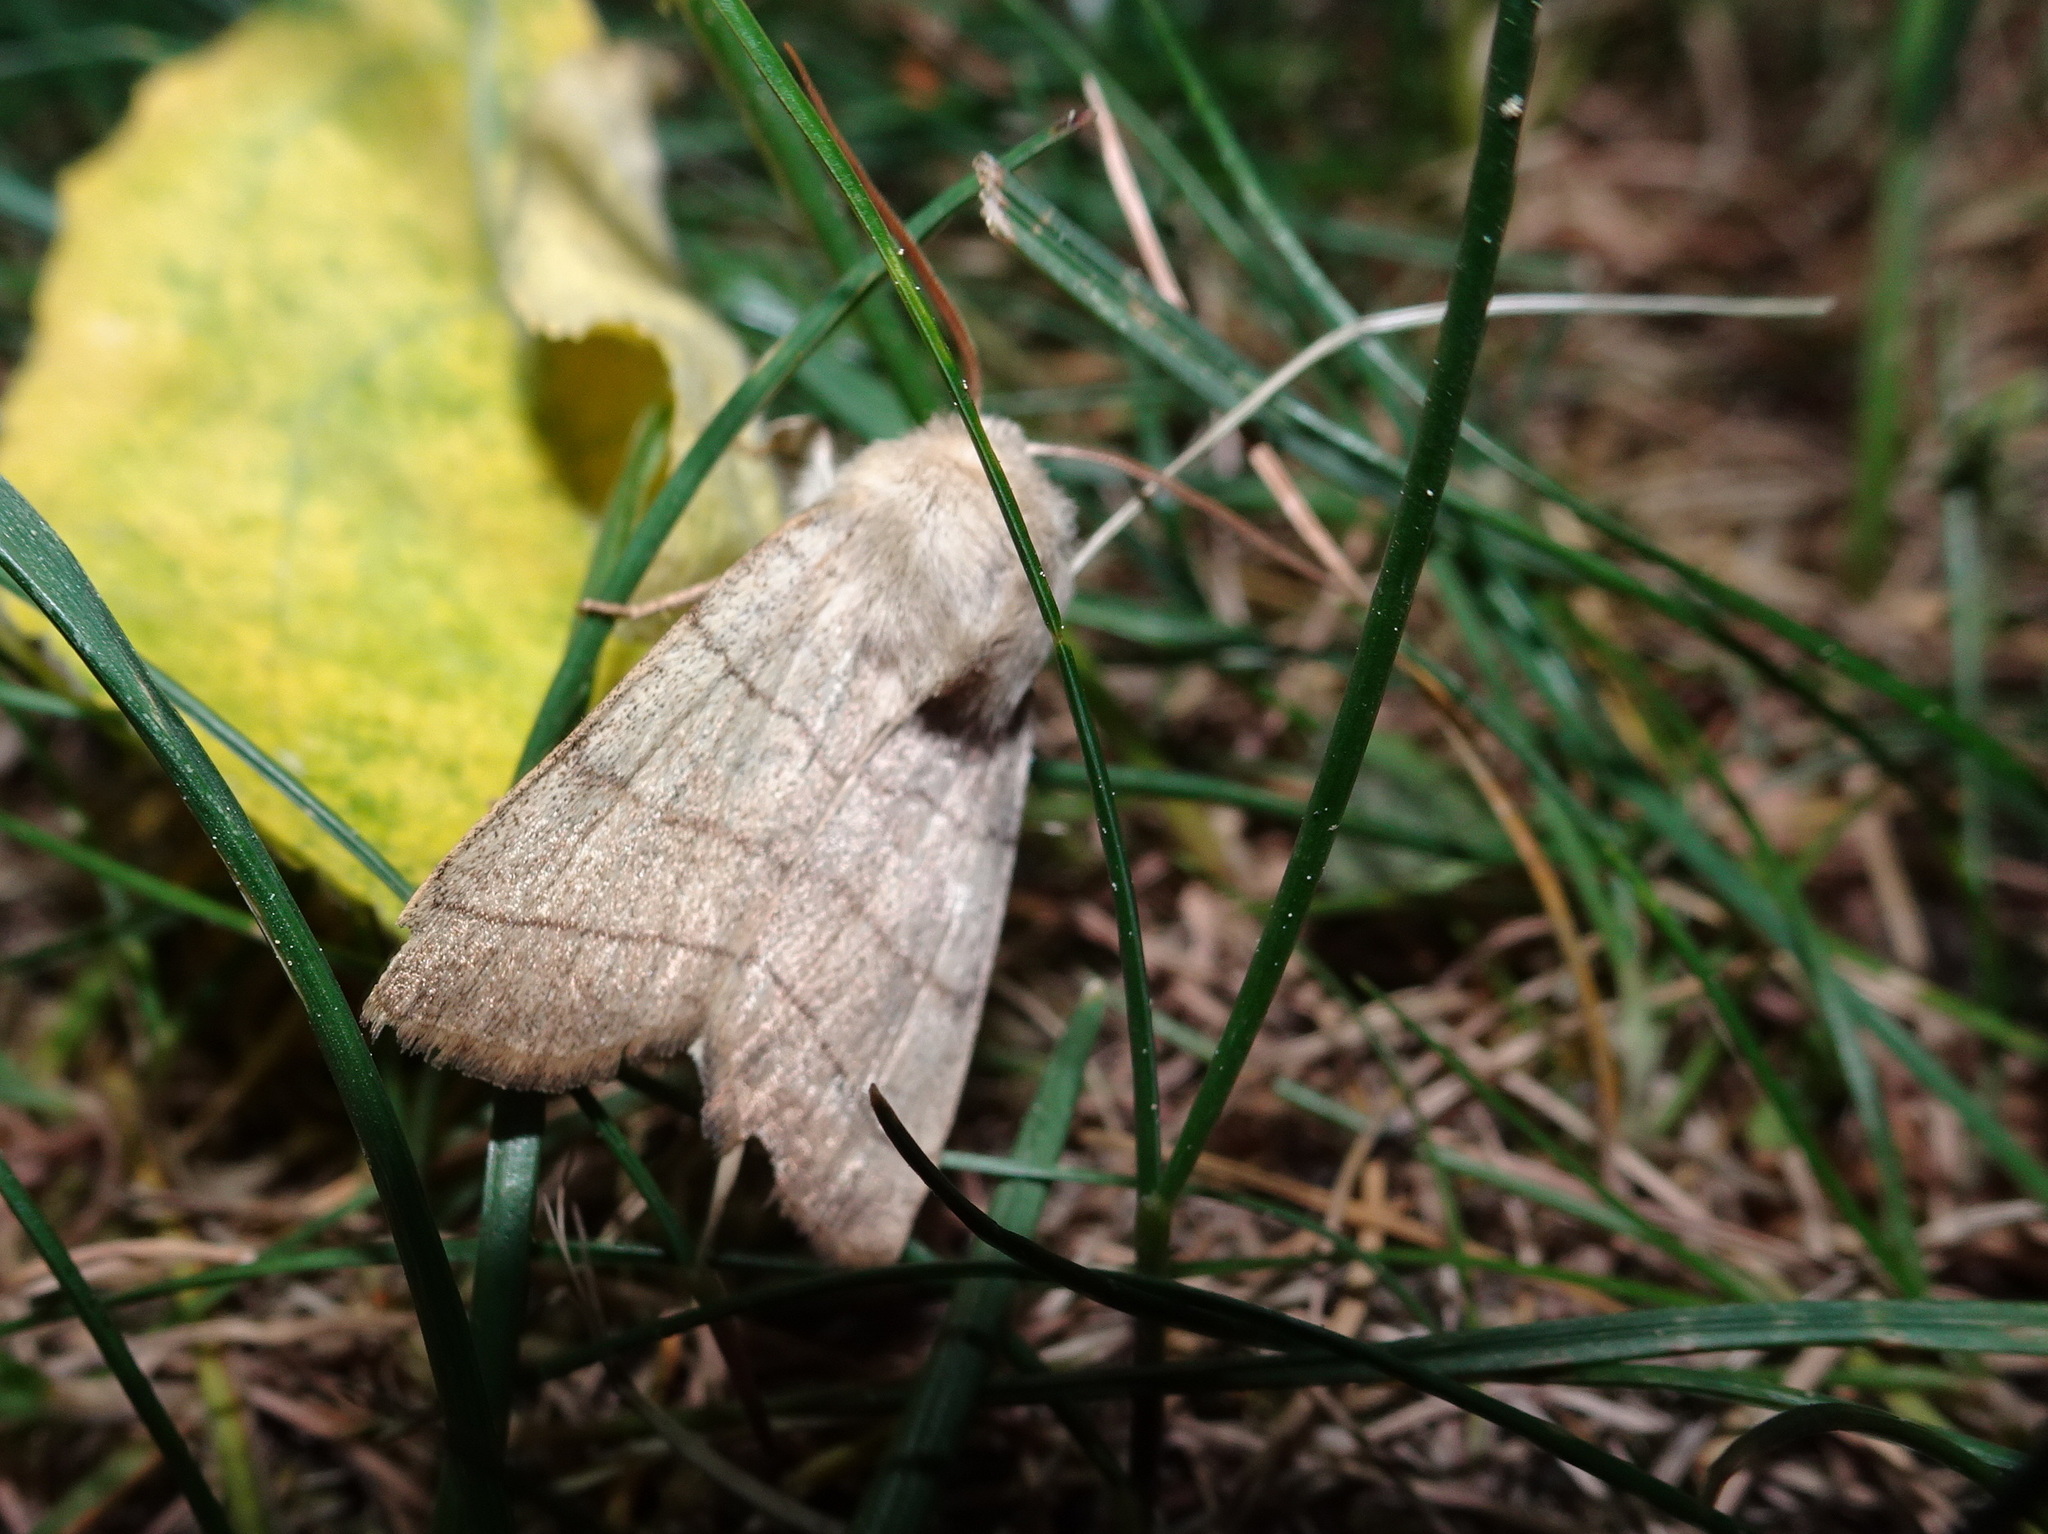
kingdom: Animalia
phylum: Arthropoda
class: Insecta
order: Lepidoptera
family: Noctuidae
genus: Charanyca
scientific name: Charanyca trigrammica
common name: Treble lines
